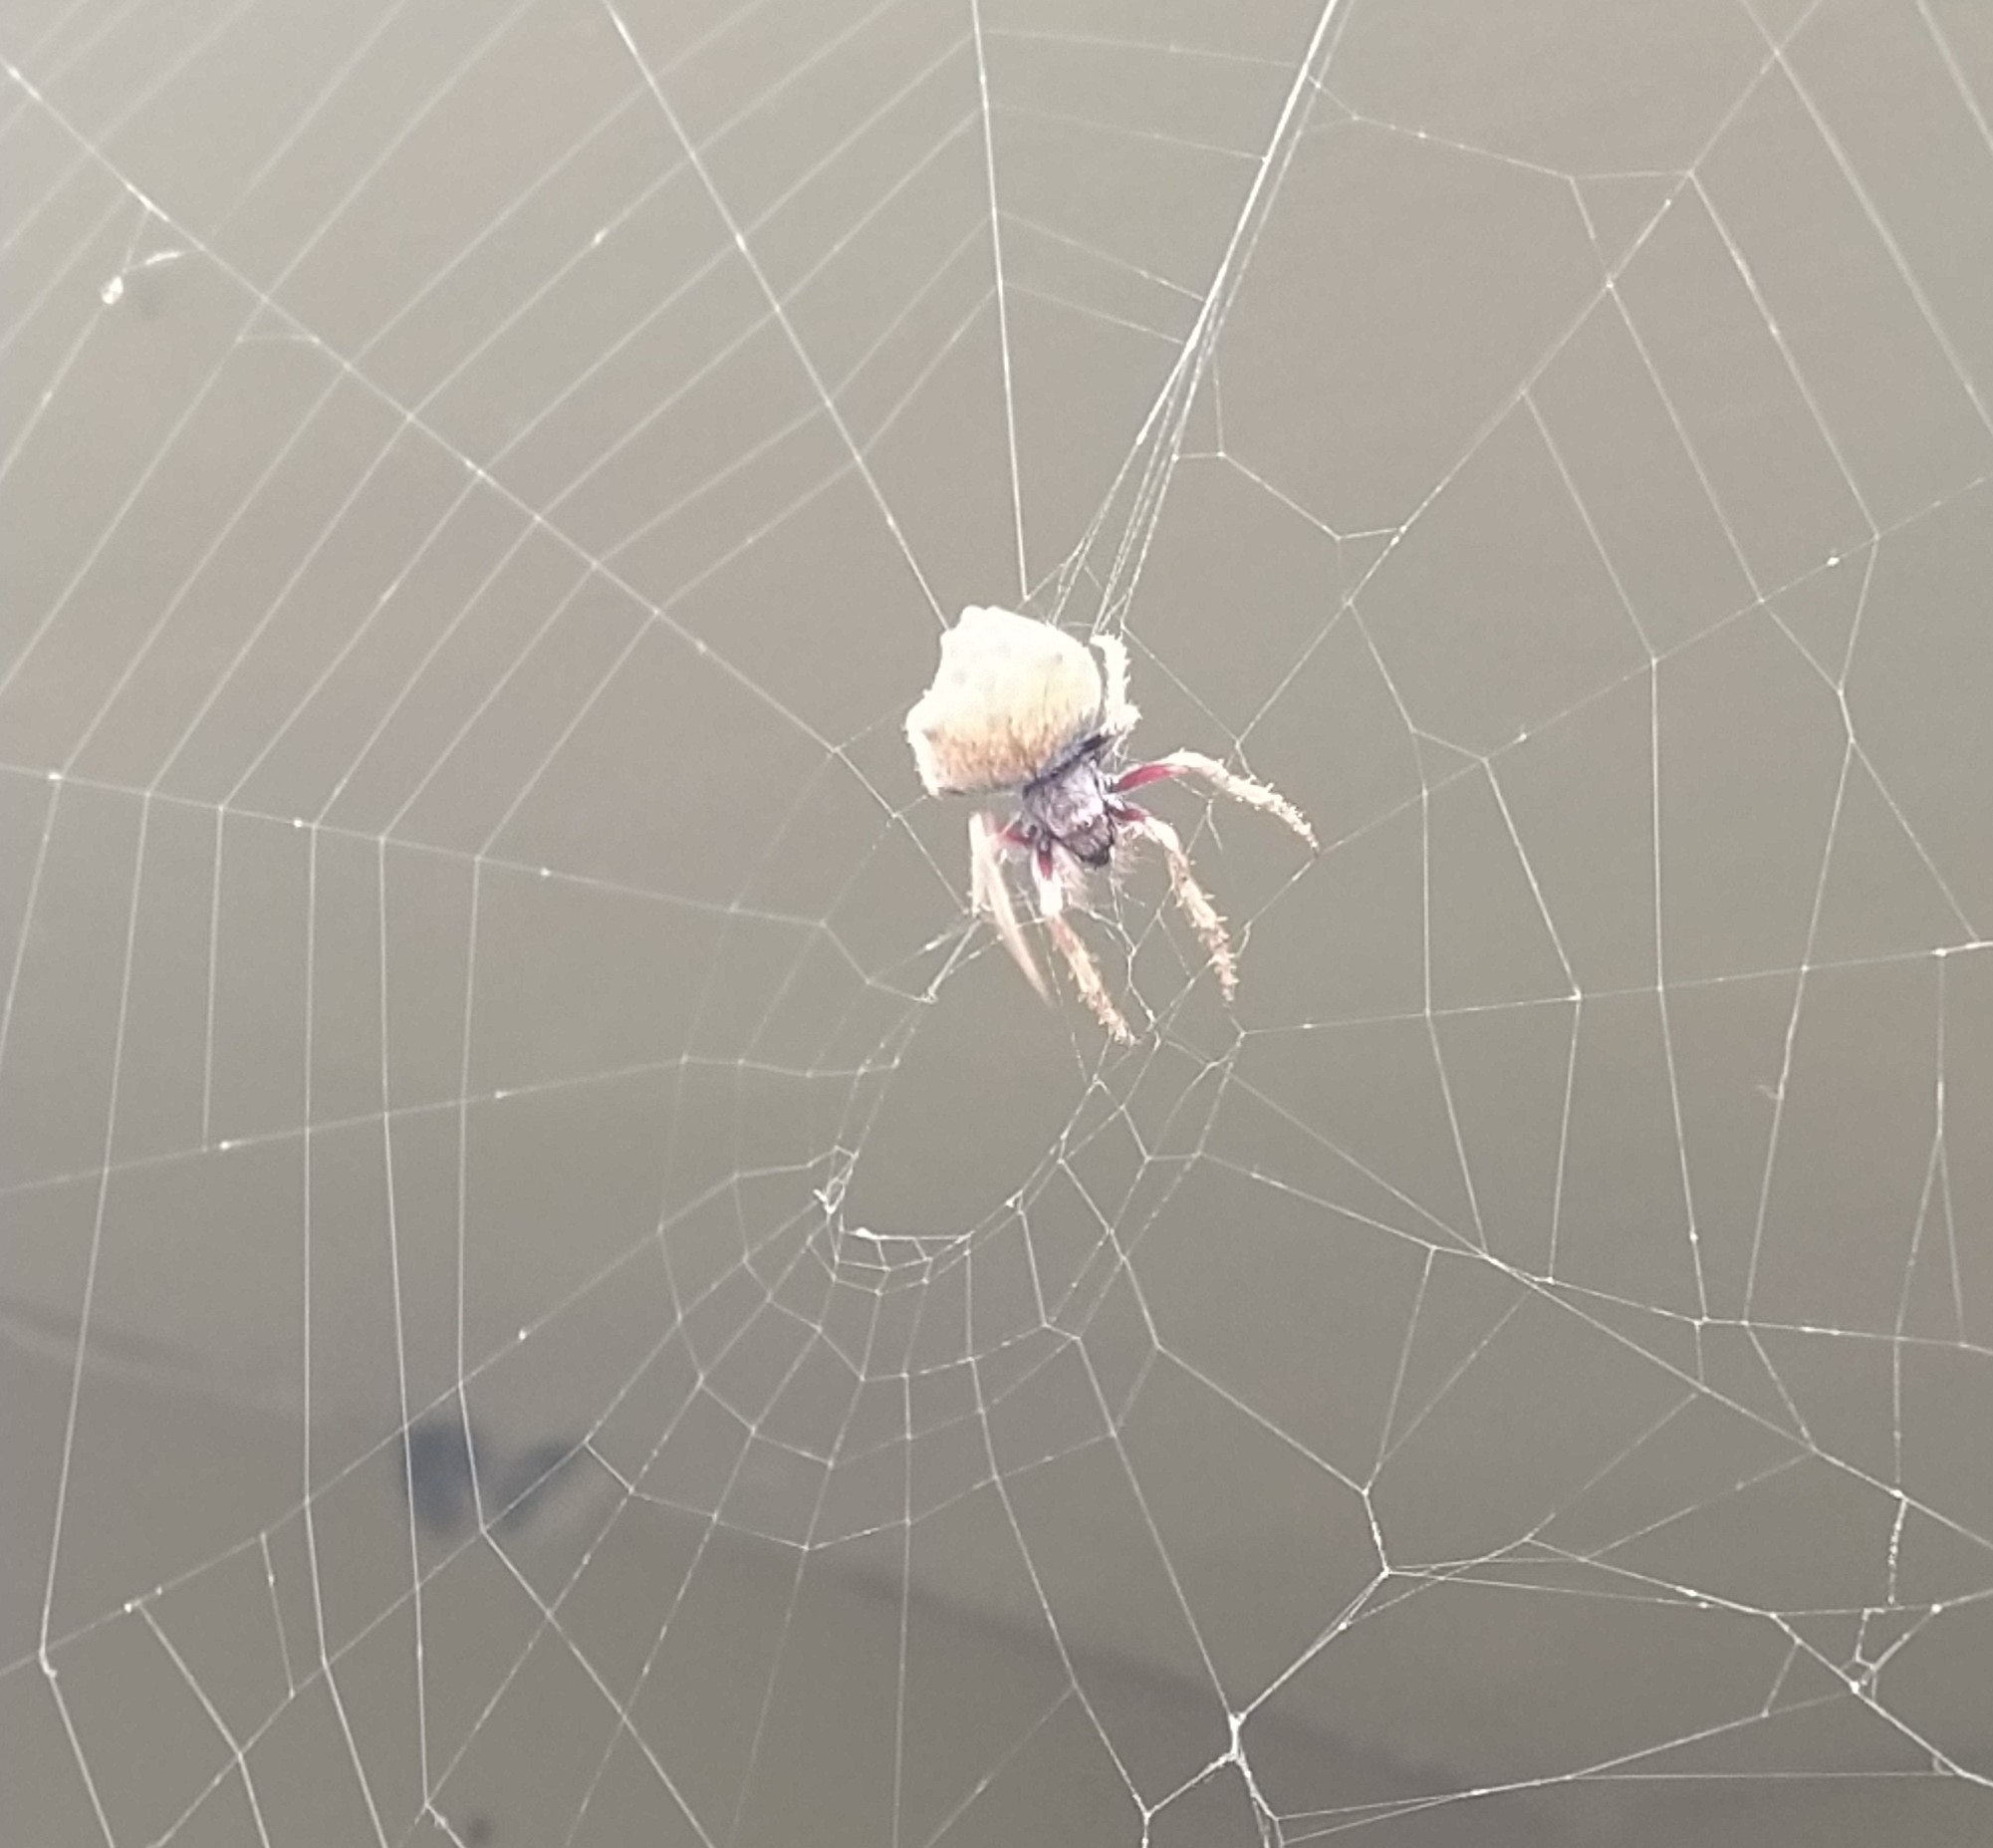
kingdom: Animalia
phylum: Arthropoda
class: Arachnida
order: Araneae
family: Araneidae
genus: Eriophora
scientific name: Eriophora pustulosa
